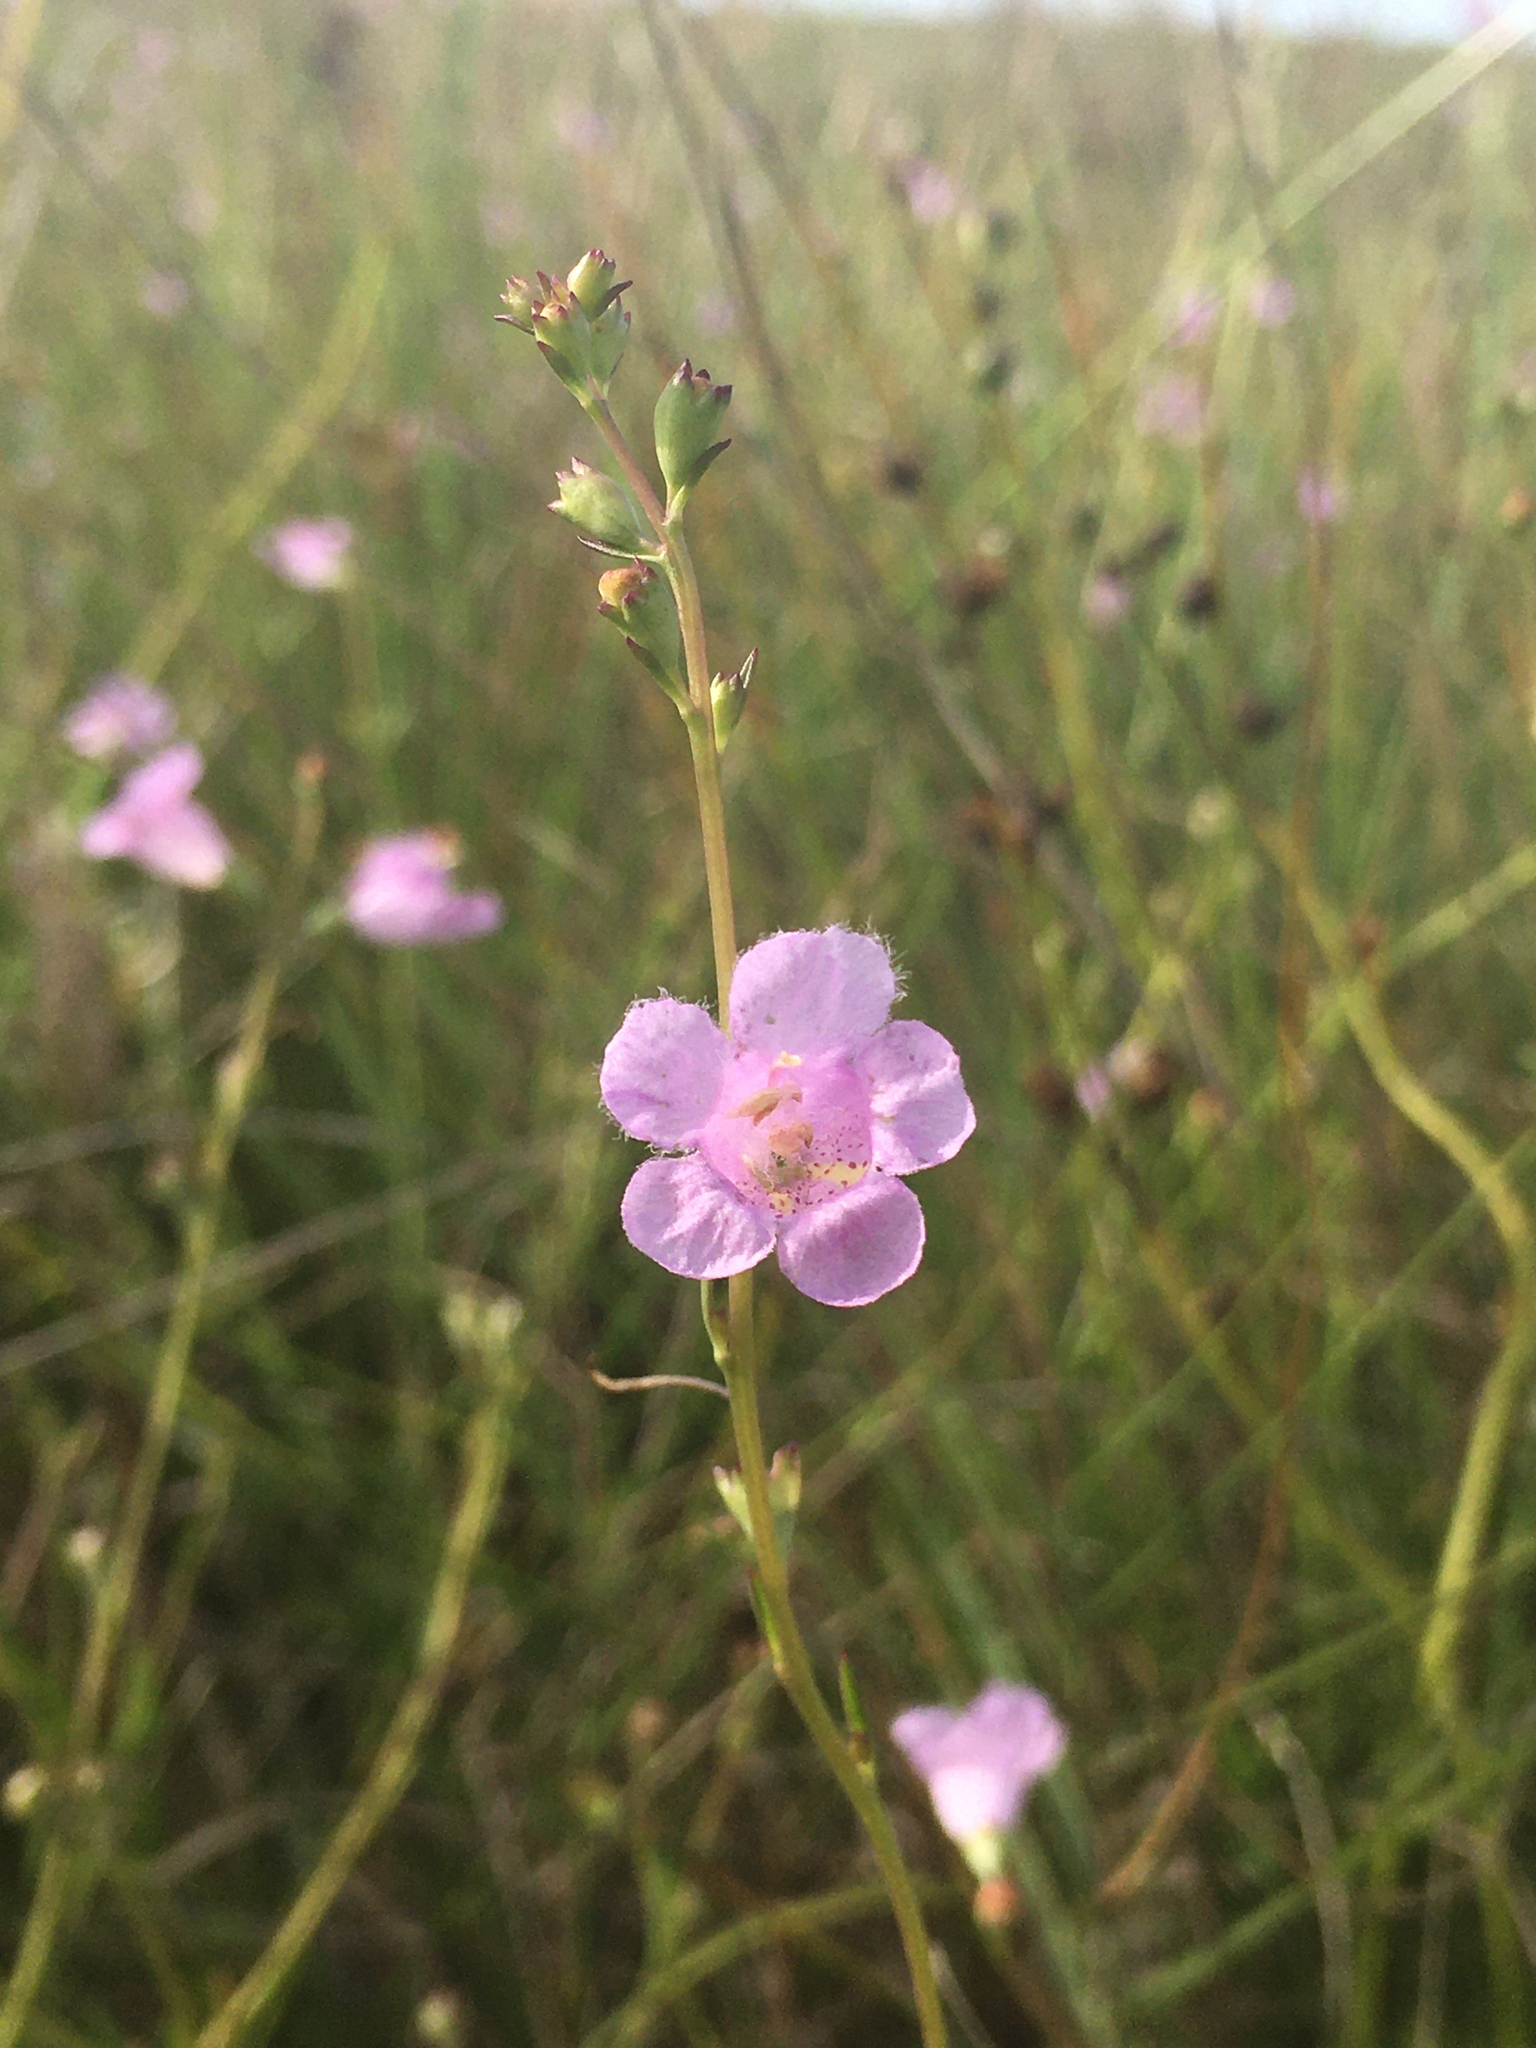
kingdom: Plantae
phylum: Tracheophyta
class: Magnoliopsida
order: Lamiales
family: Orobanchaceae
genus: Agalinis
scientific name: Agalinis maritima
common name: Saltmarsh agalinis
